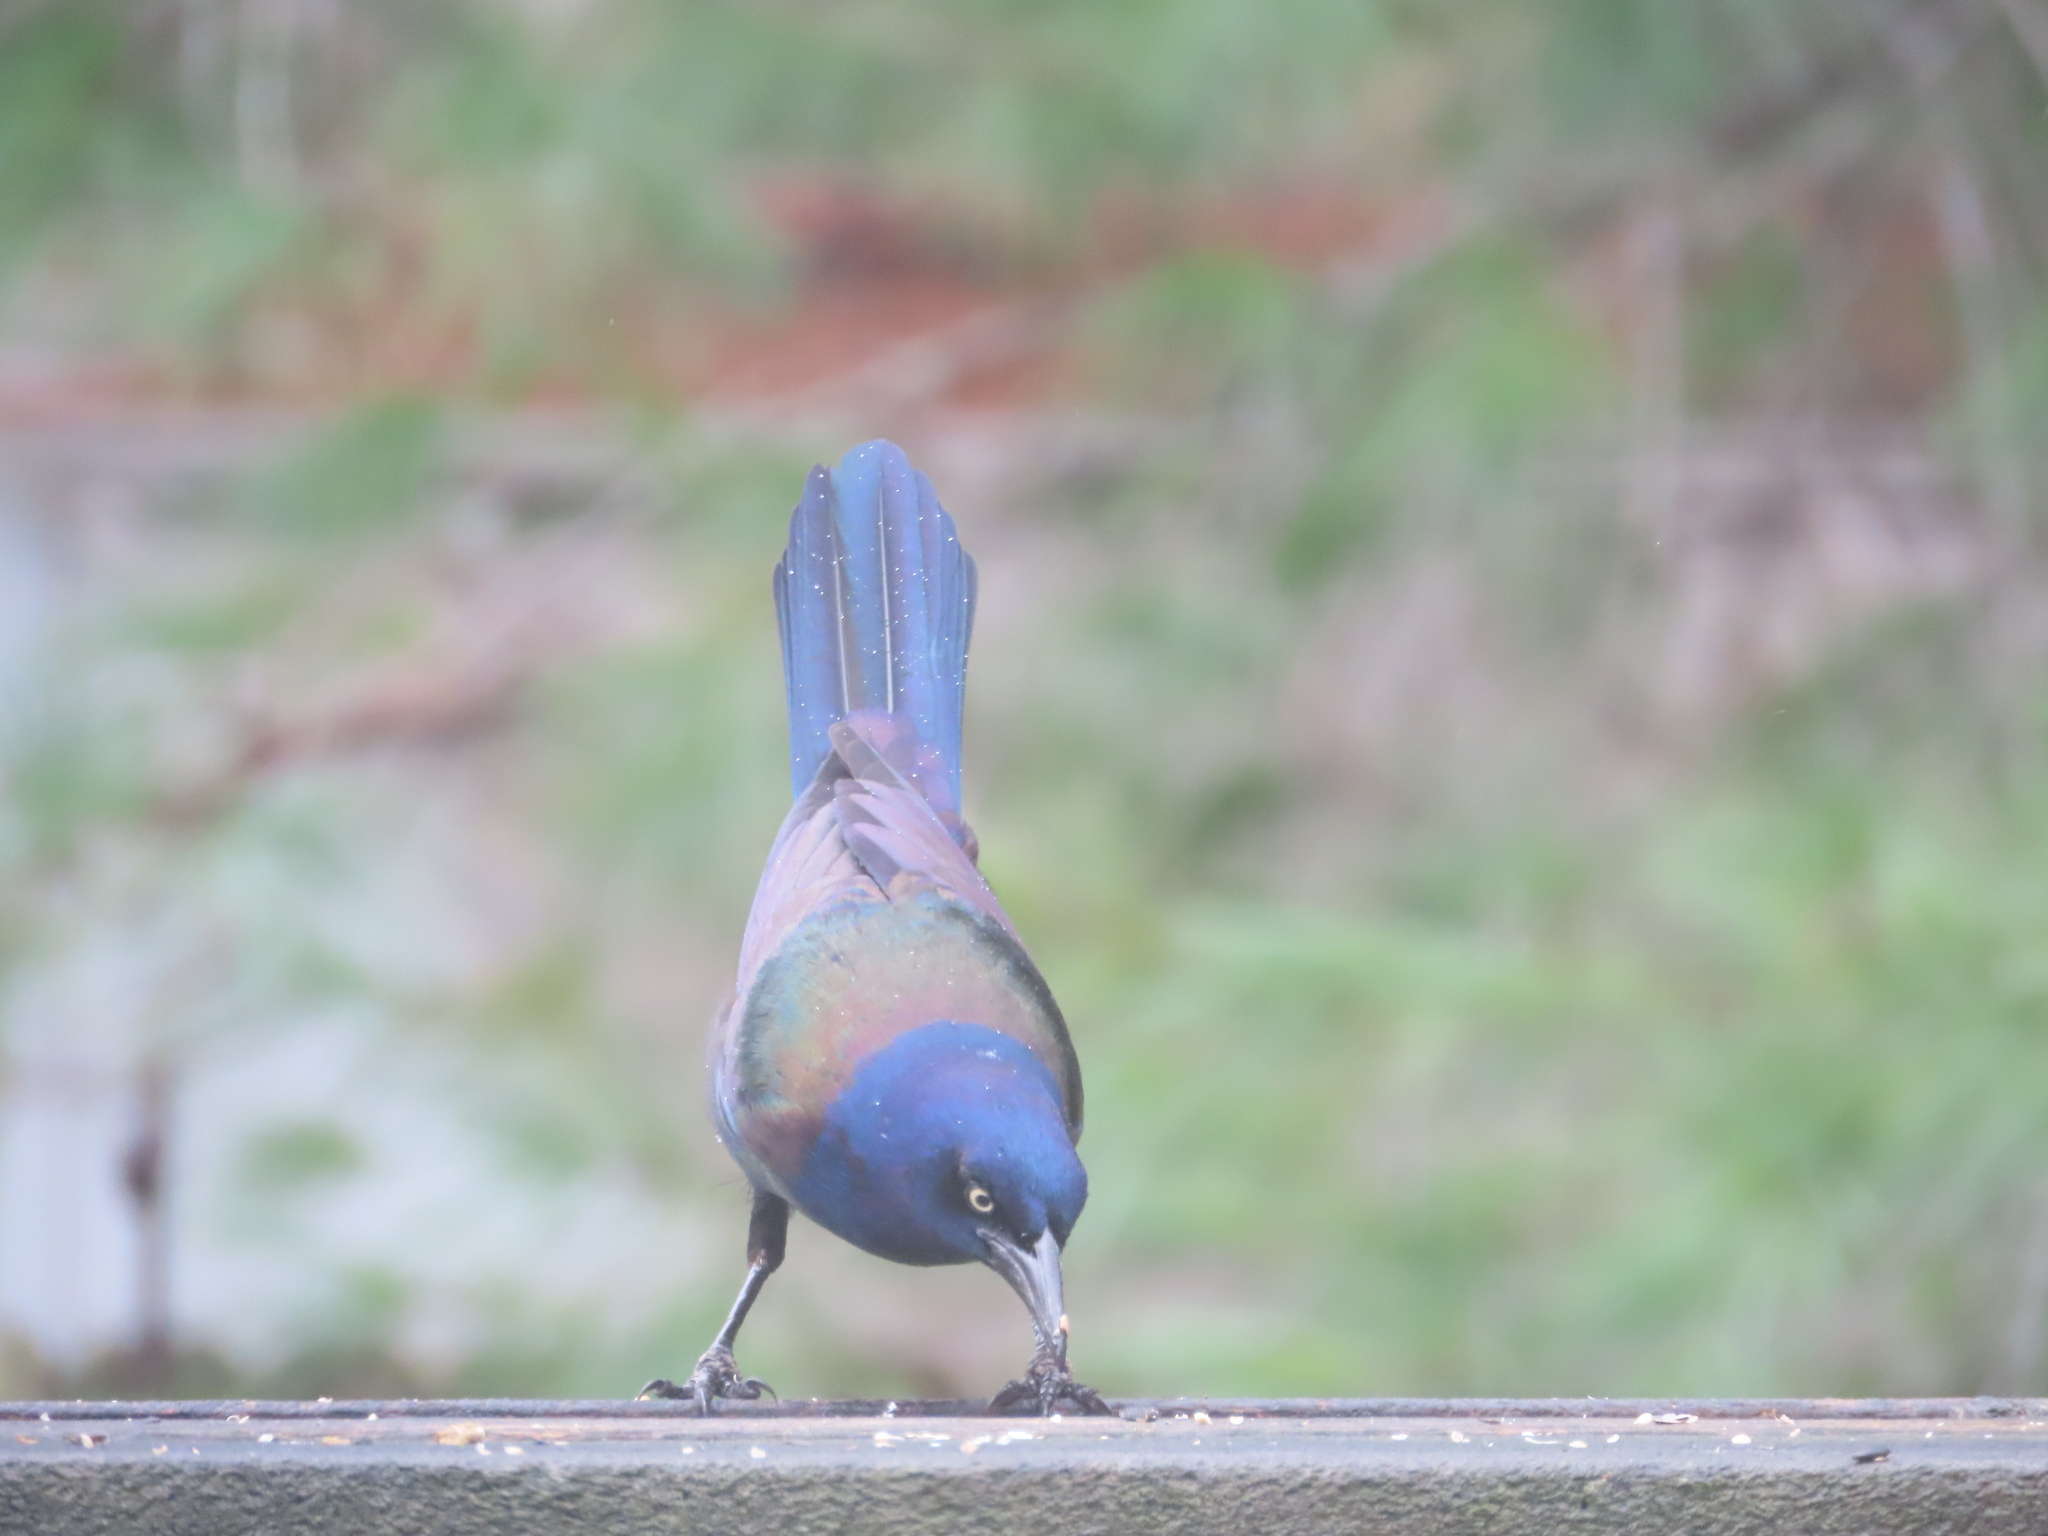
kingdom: Animalia
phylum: Chordata
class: Aves
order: Passeriformes
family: Icteridae
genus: Quiscalus
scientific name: Quiscalus quiscula
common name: Common grackle
